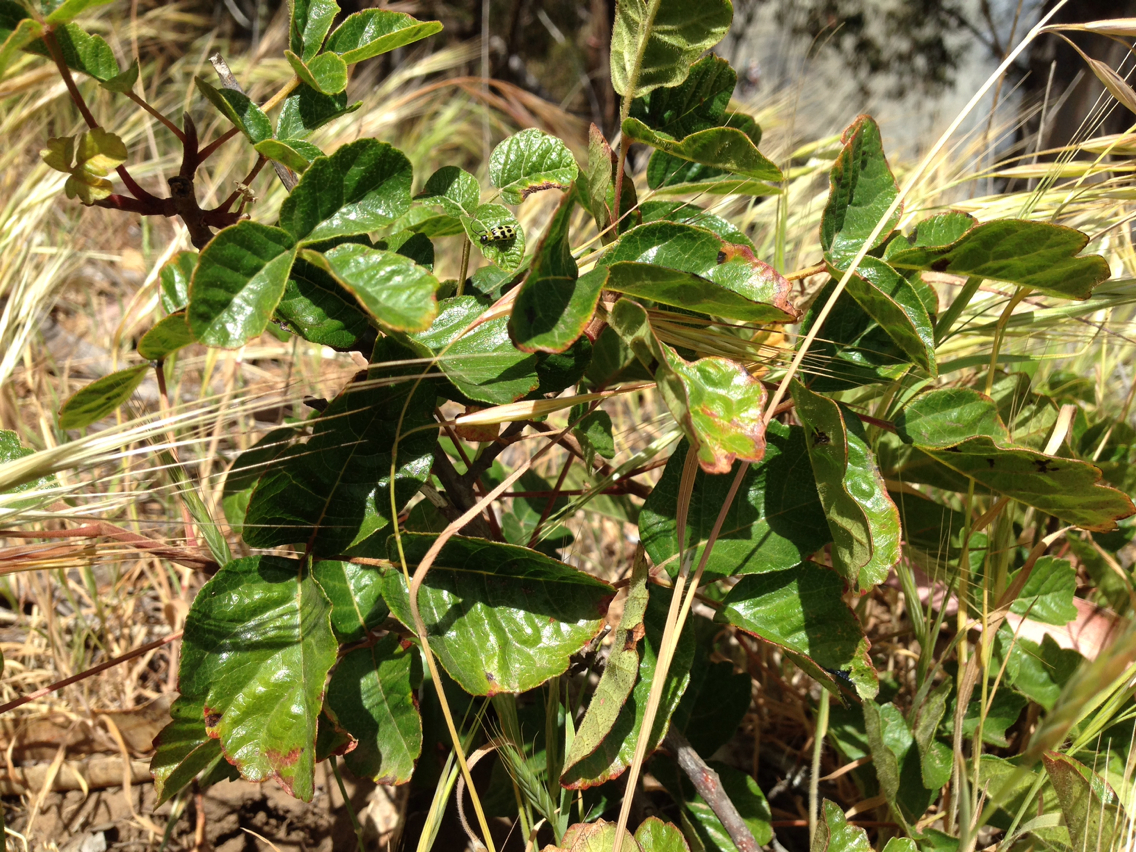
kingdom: Plantae
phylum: Tracheophyta
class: Magnoliopsida
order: Sapindales
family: Anacardiaceae
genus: Toxicodendron
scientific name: Toxicodendron diversilobum
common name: Pacific poison-oak
